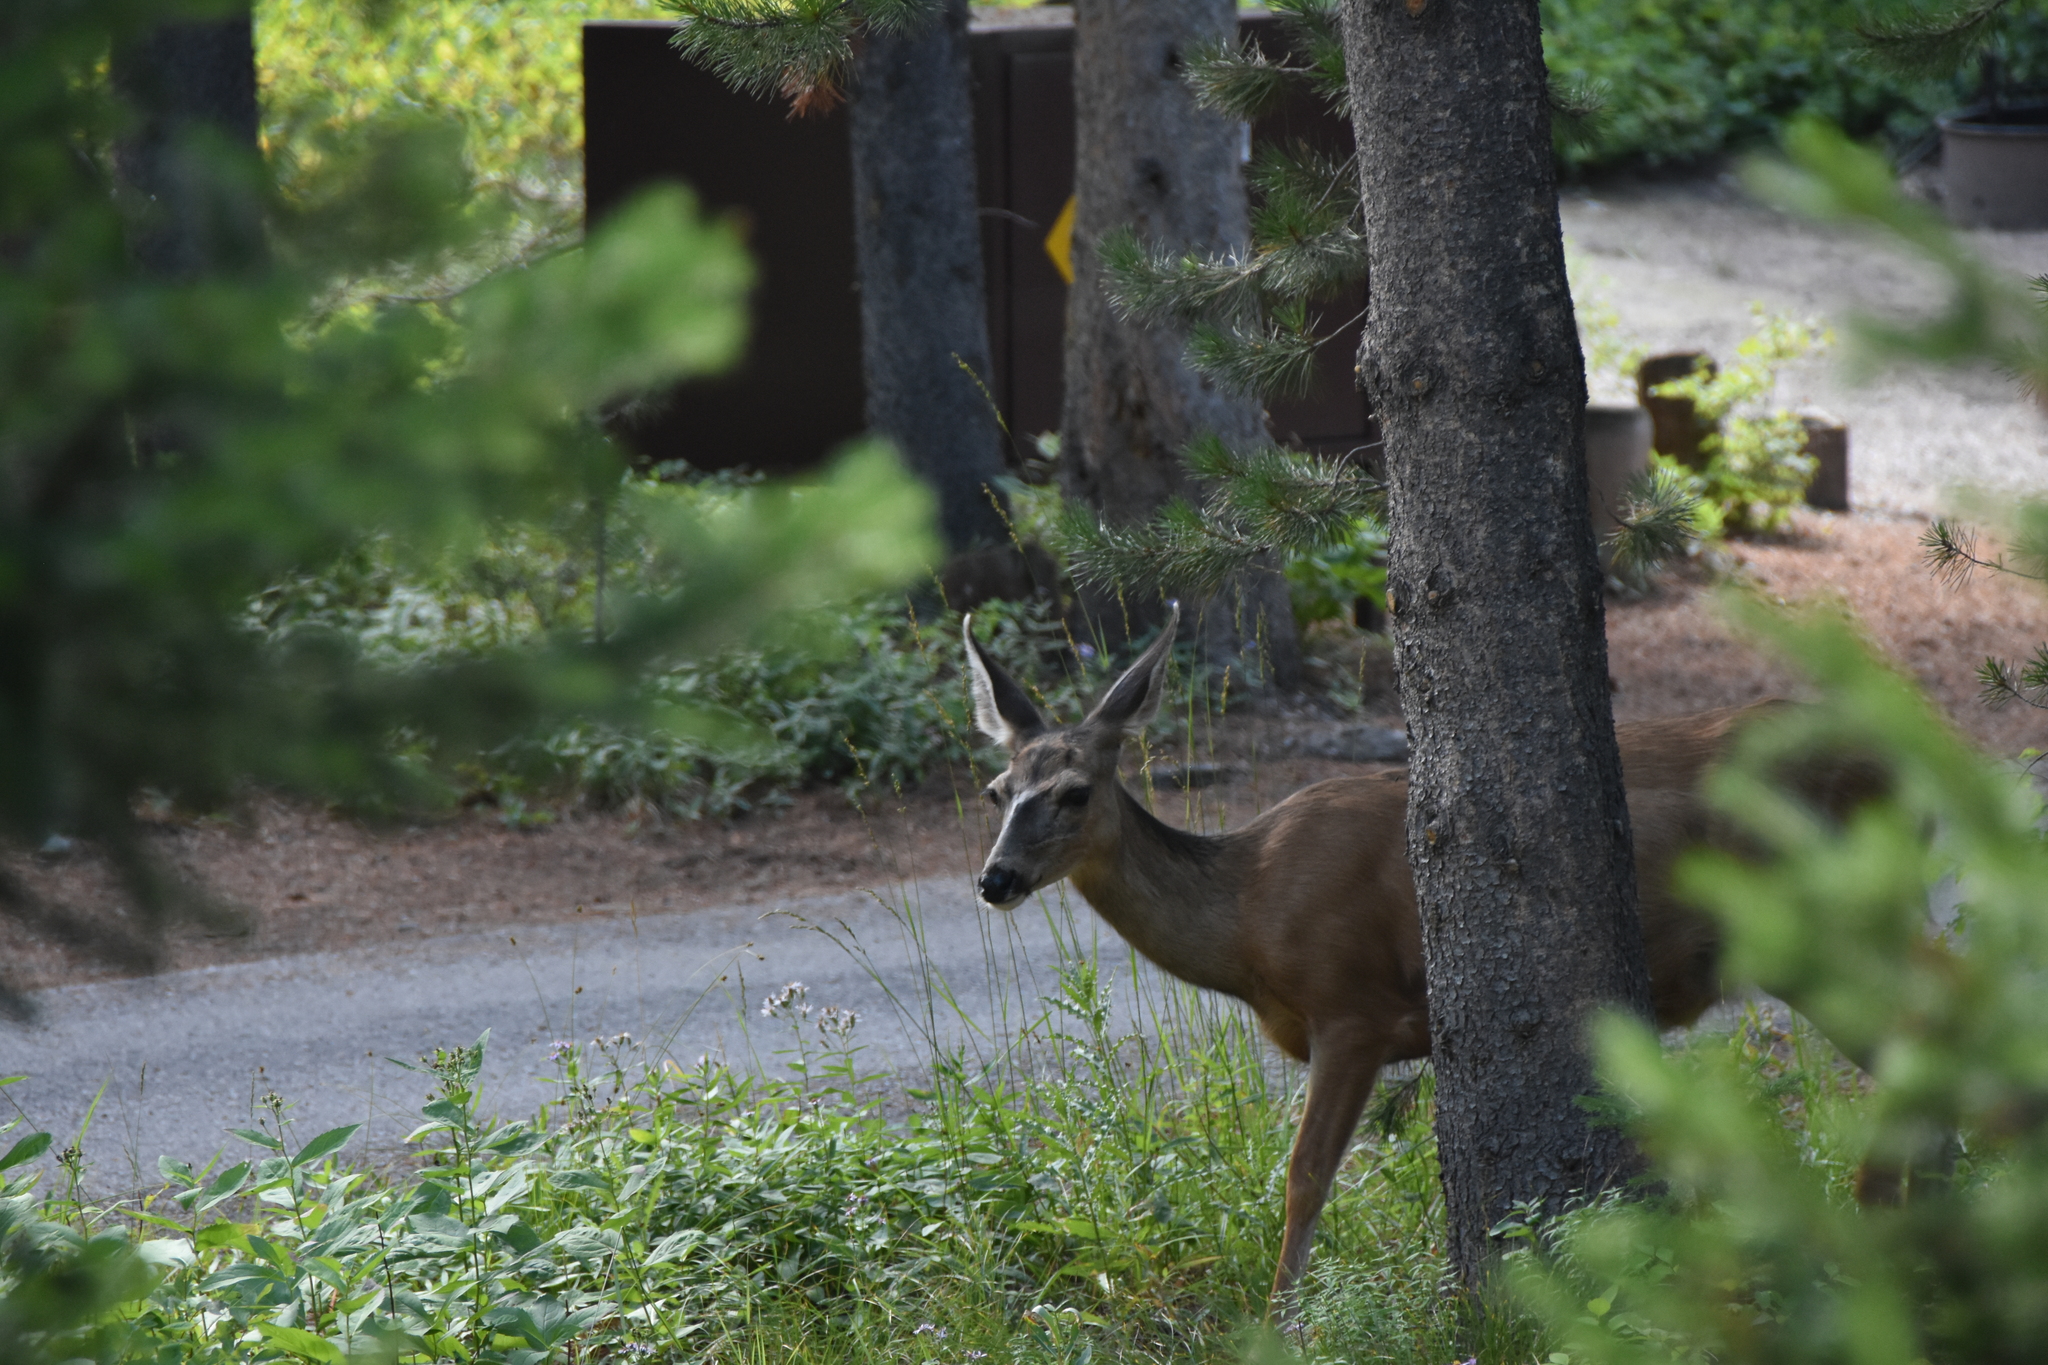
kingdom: Animalia
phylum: Chordata
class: Mammalia
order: Artiodactyla
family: Cervidae
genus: Odocoileus
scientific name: Odocoileus hemionus
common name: Mule deer
